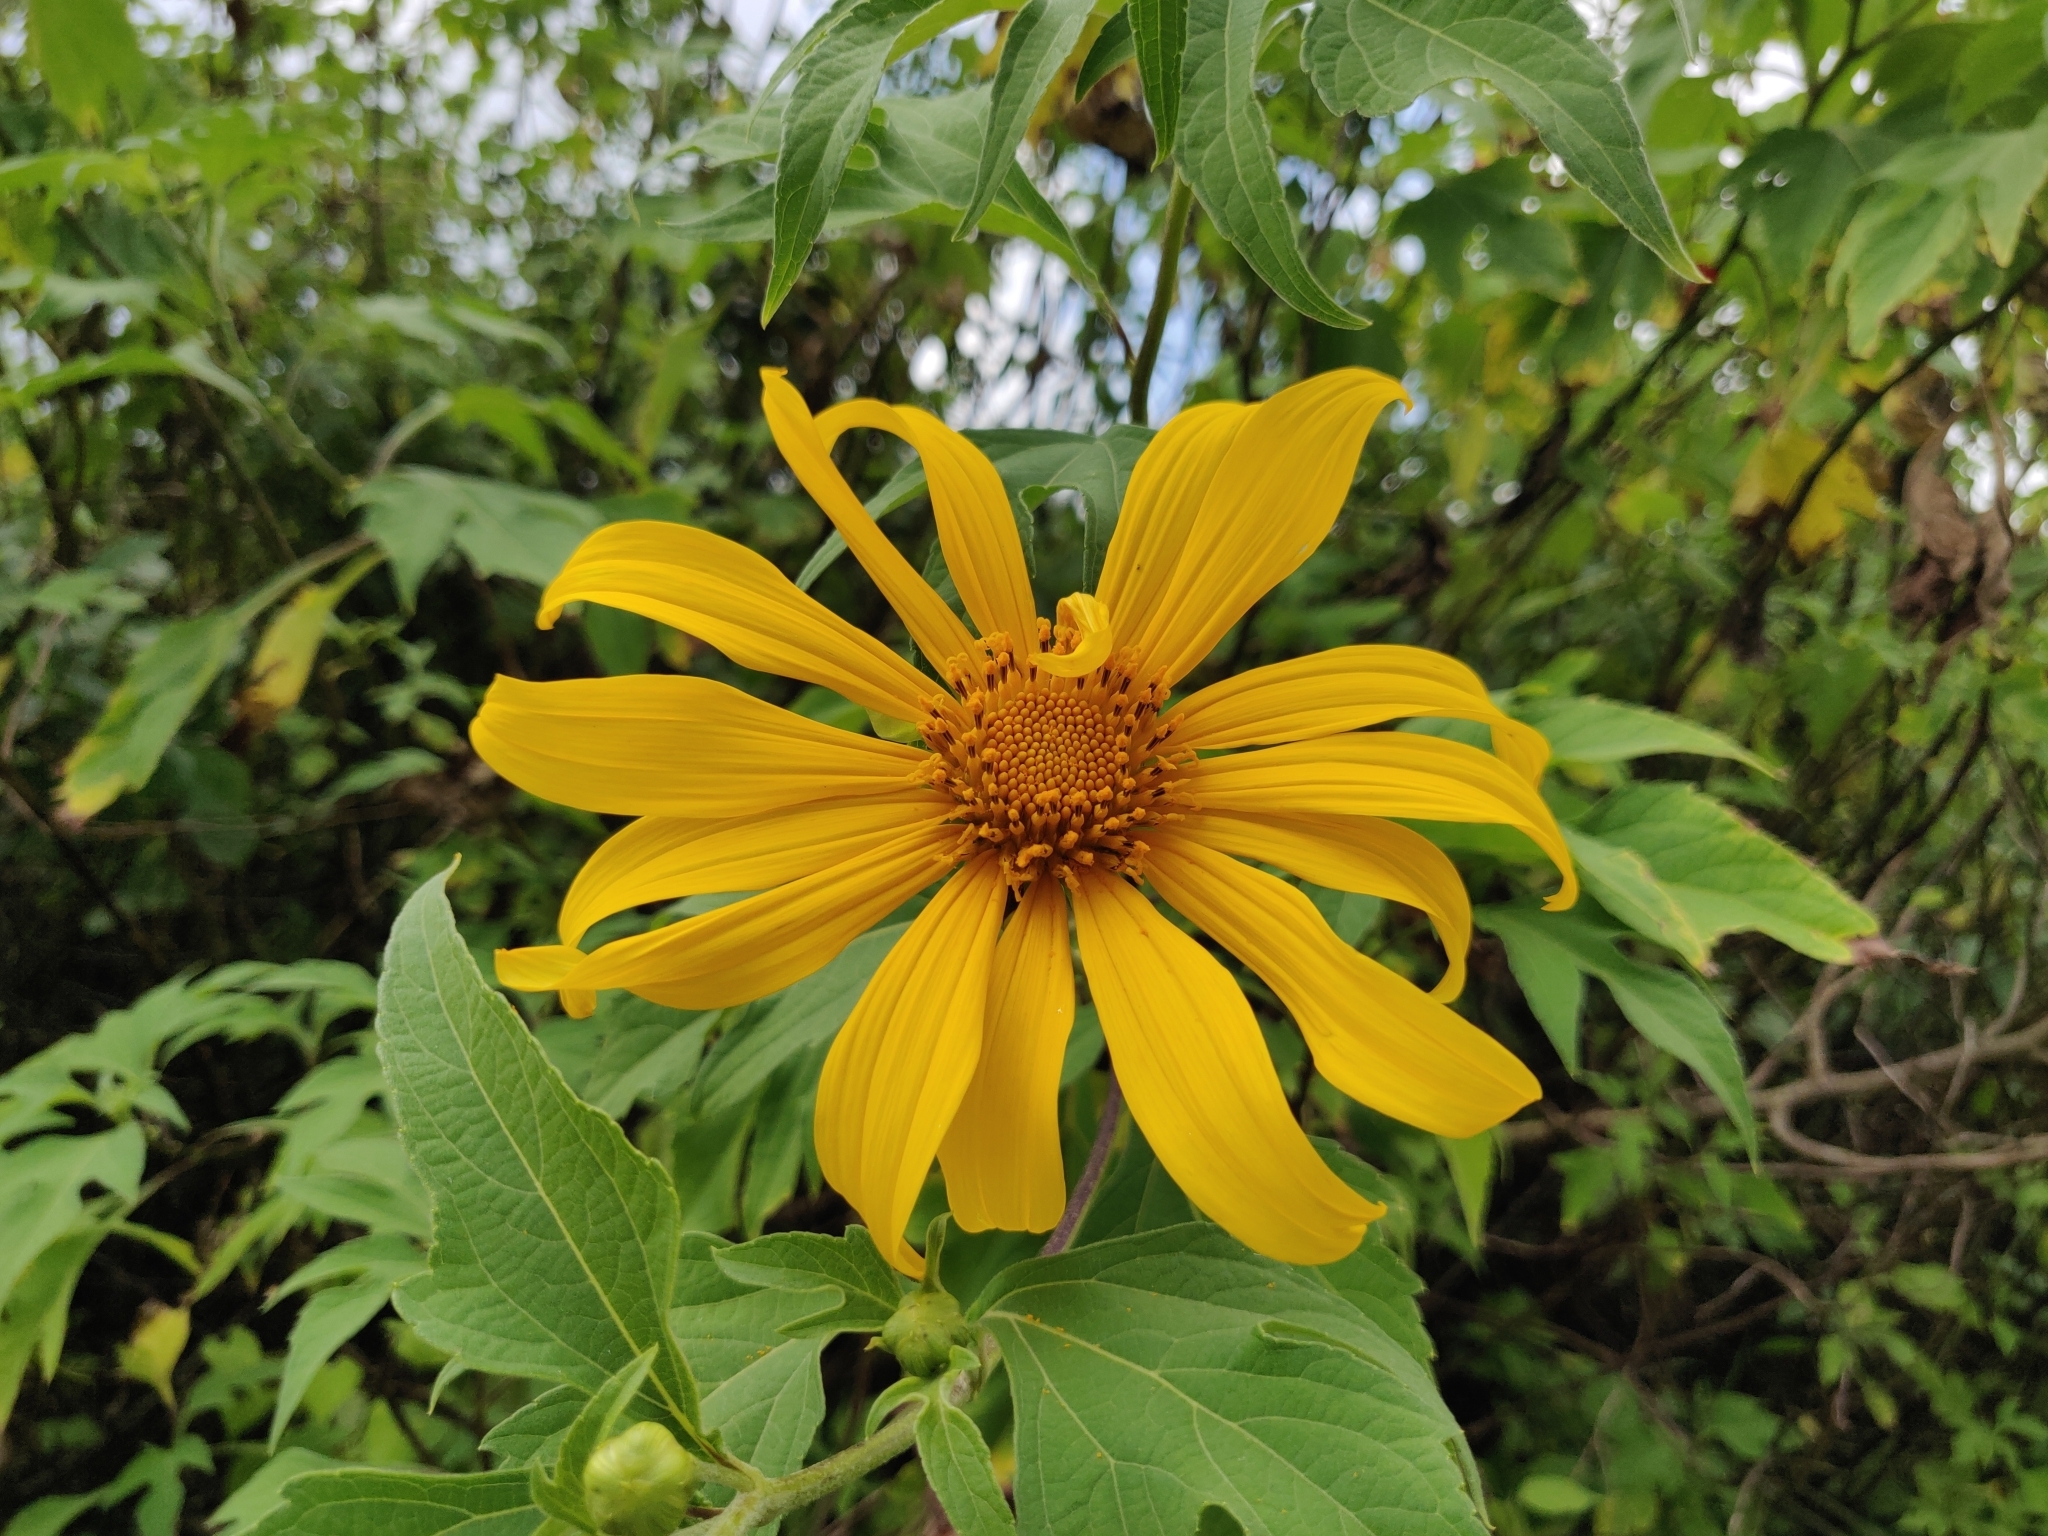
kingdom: Plantae
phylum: Tracheophyta
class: Magnoliopsida
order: Asterales
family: Asteraceae
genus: Tithonia
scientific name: Tithonia rotundifolia
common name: Sunflower
